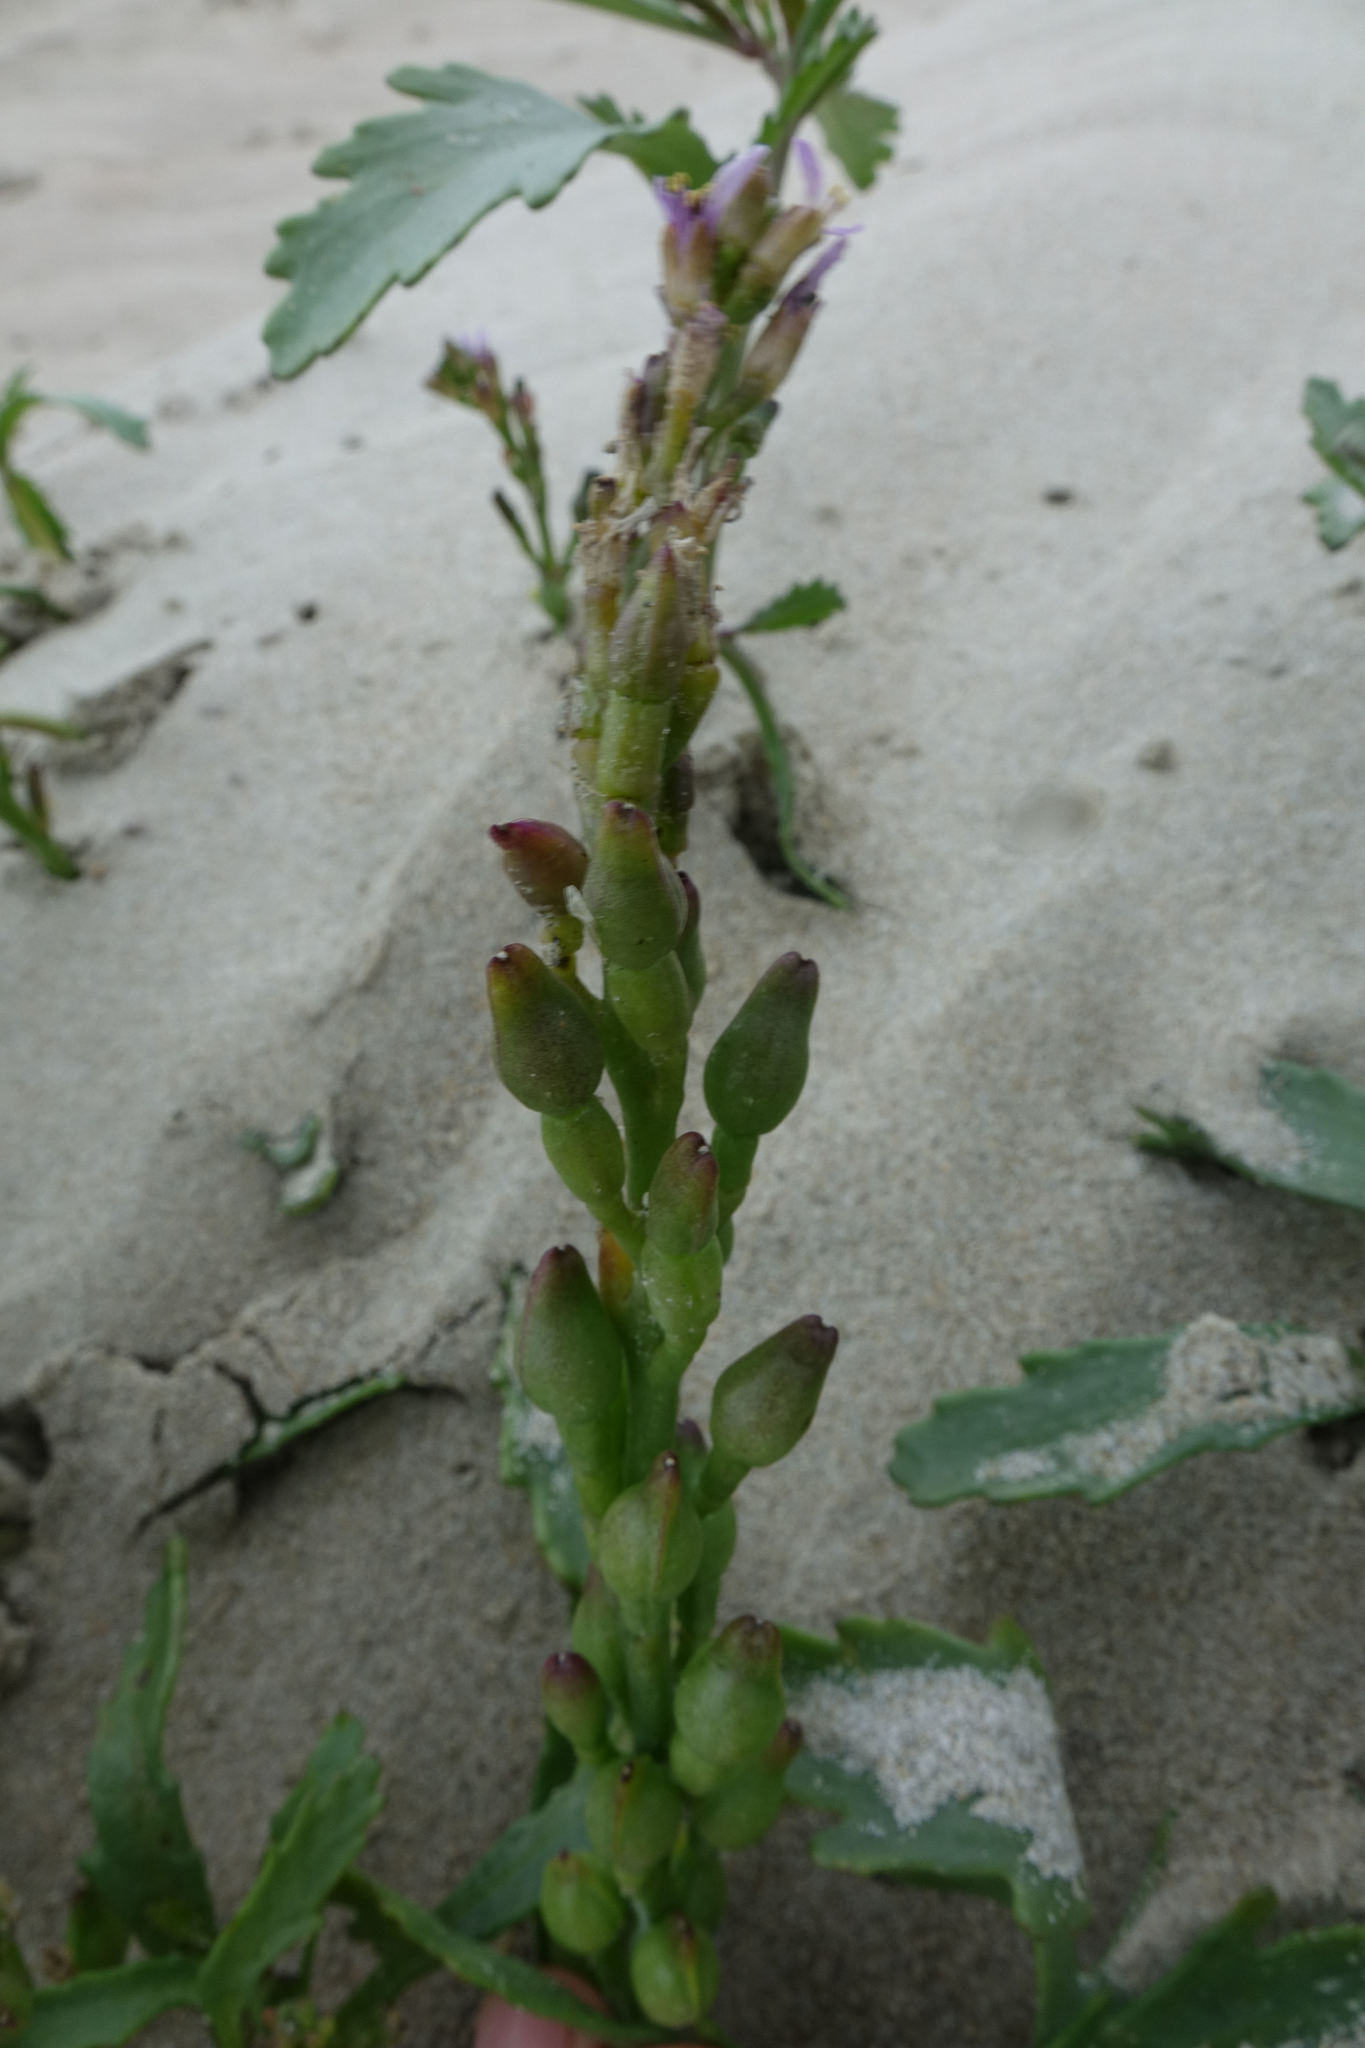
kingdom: Plantae
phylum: Tracheophyta
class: Magnoliopsida
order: Brassicales
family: Brassicaceae
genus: Cakile
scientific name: Cakile edentula
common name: American sea rocket
